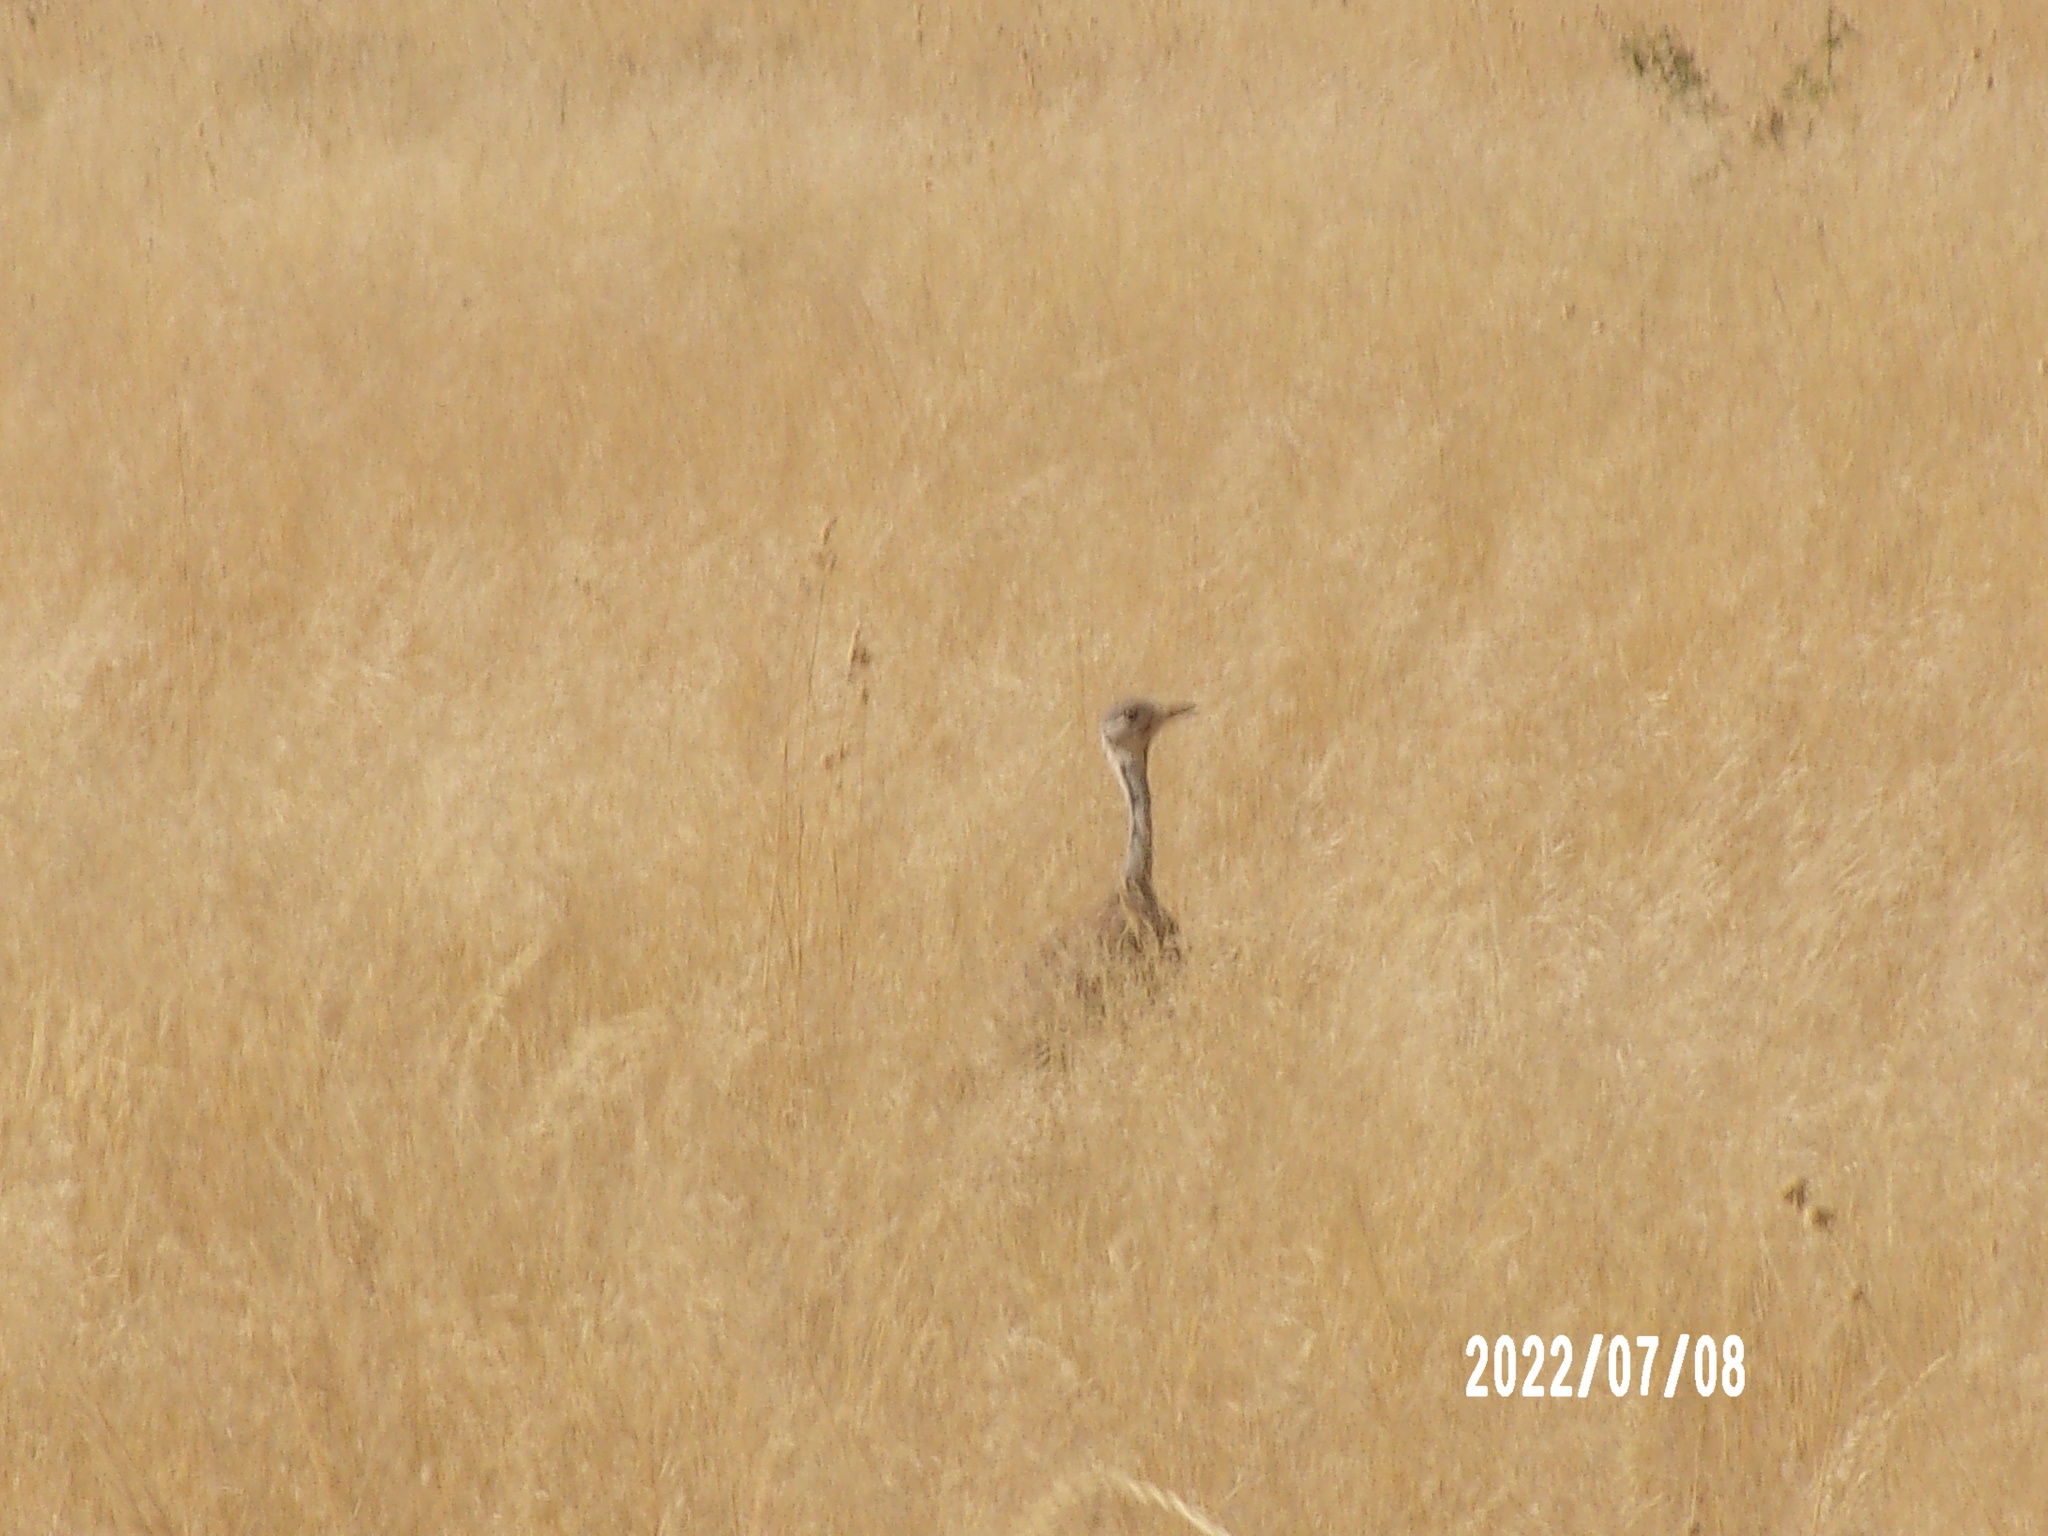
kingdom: Animalia
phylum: Chordata
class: Aves
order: Otidiformes
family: Otididae
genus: Heterotetrax
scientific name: Heterotetrax rueppelii
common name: Rüppell's korhaan
